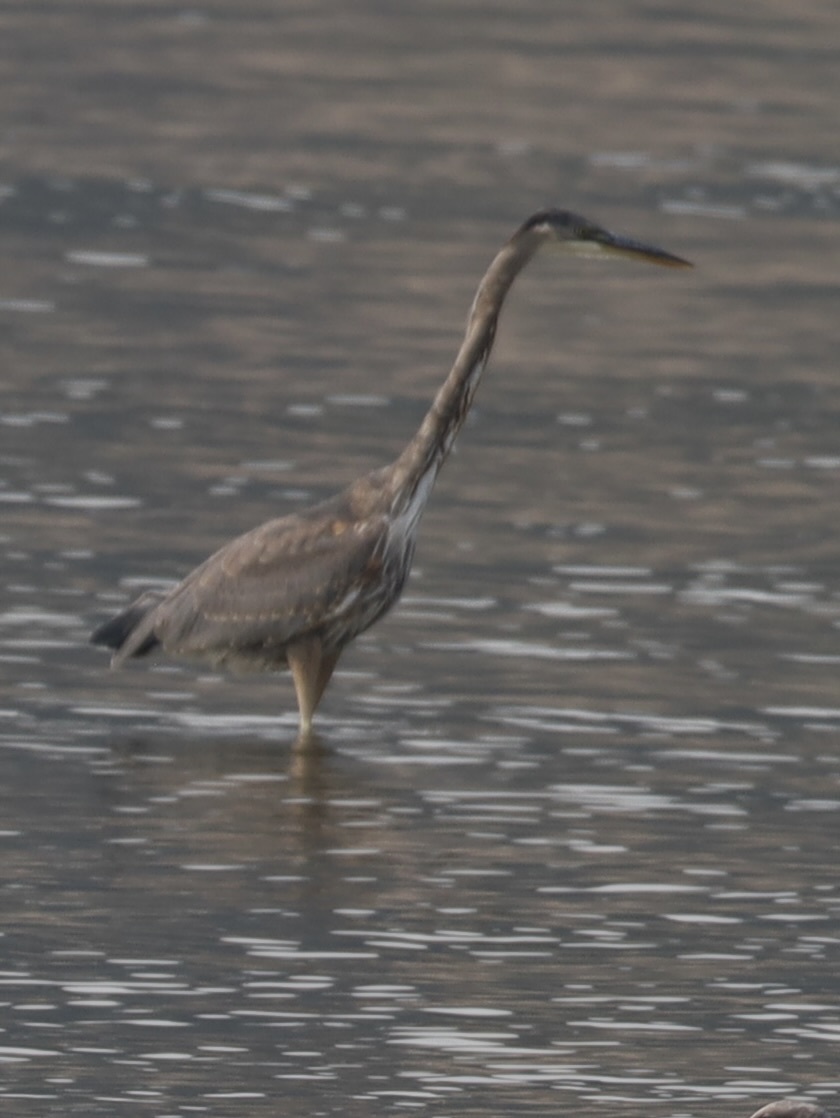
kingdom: Animalia
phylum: Chordata
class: Aves
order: Pelecaniformes
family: Ardeidae
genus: Ardea
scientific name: Ardea herodias
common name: Great blue heron
